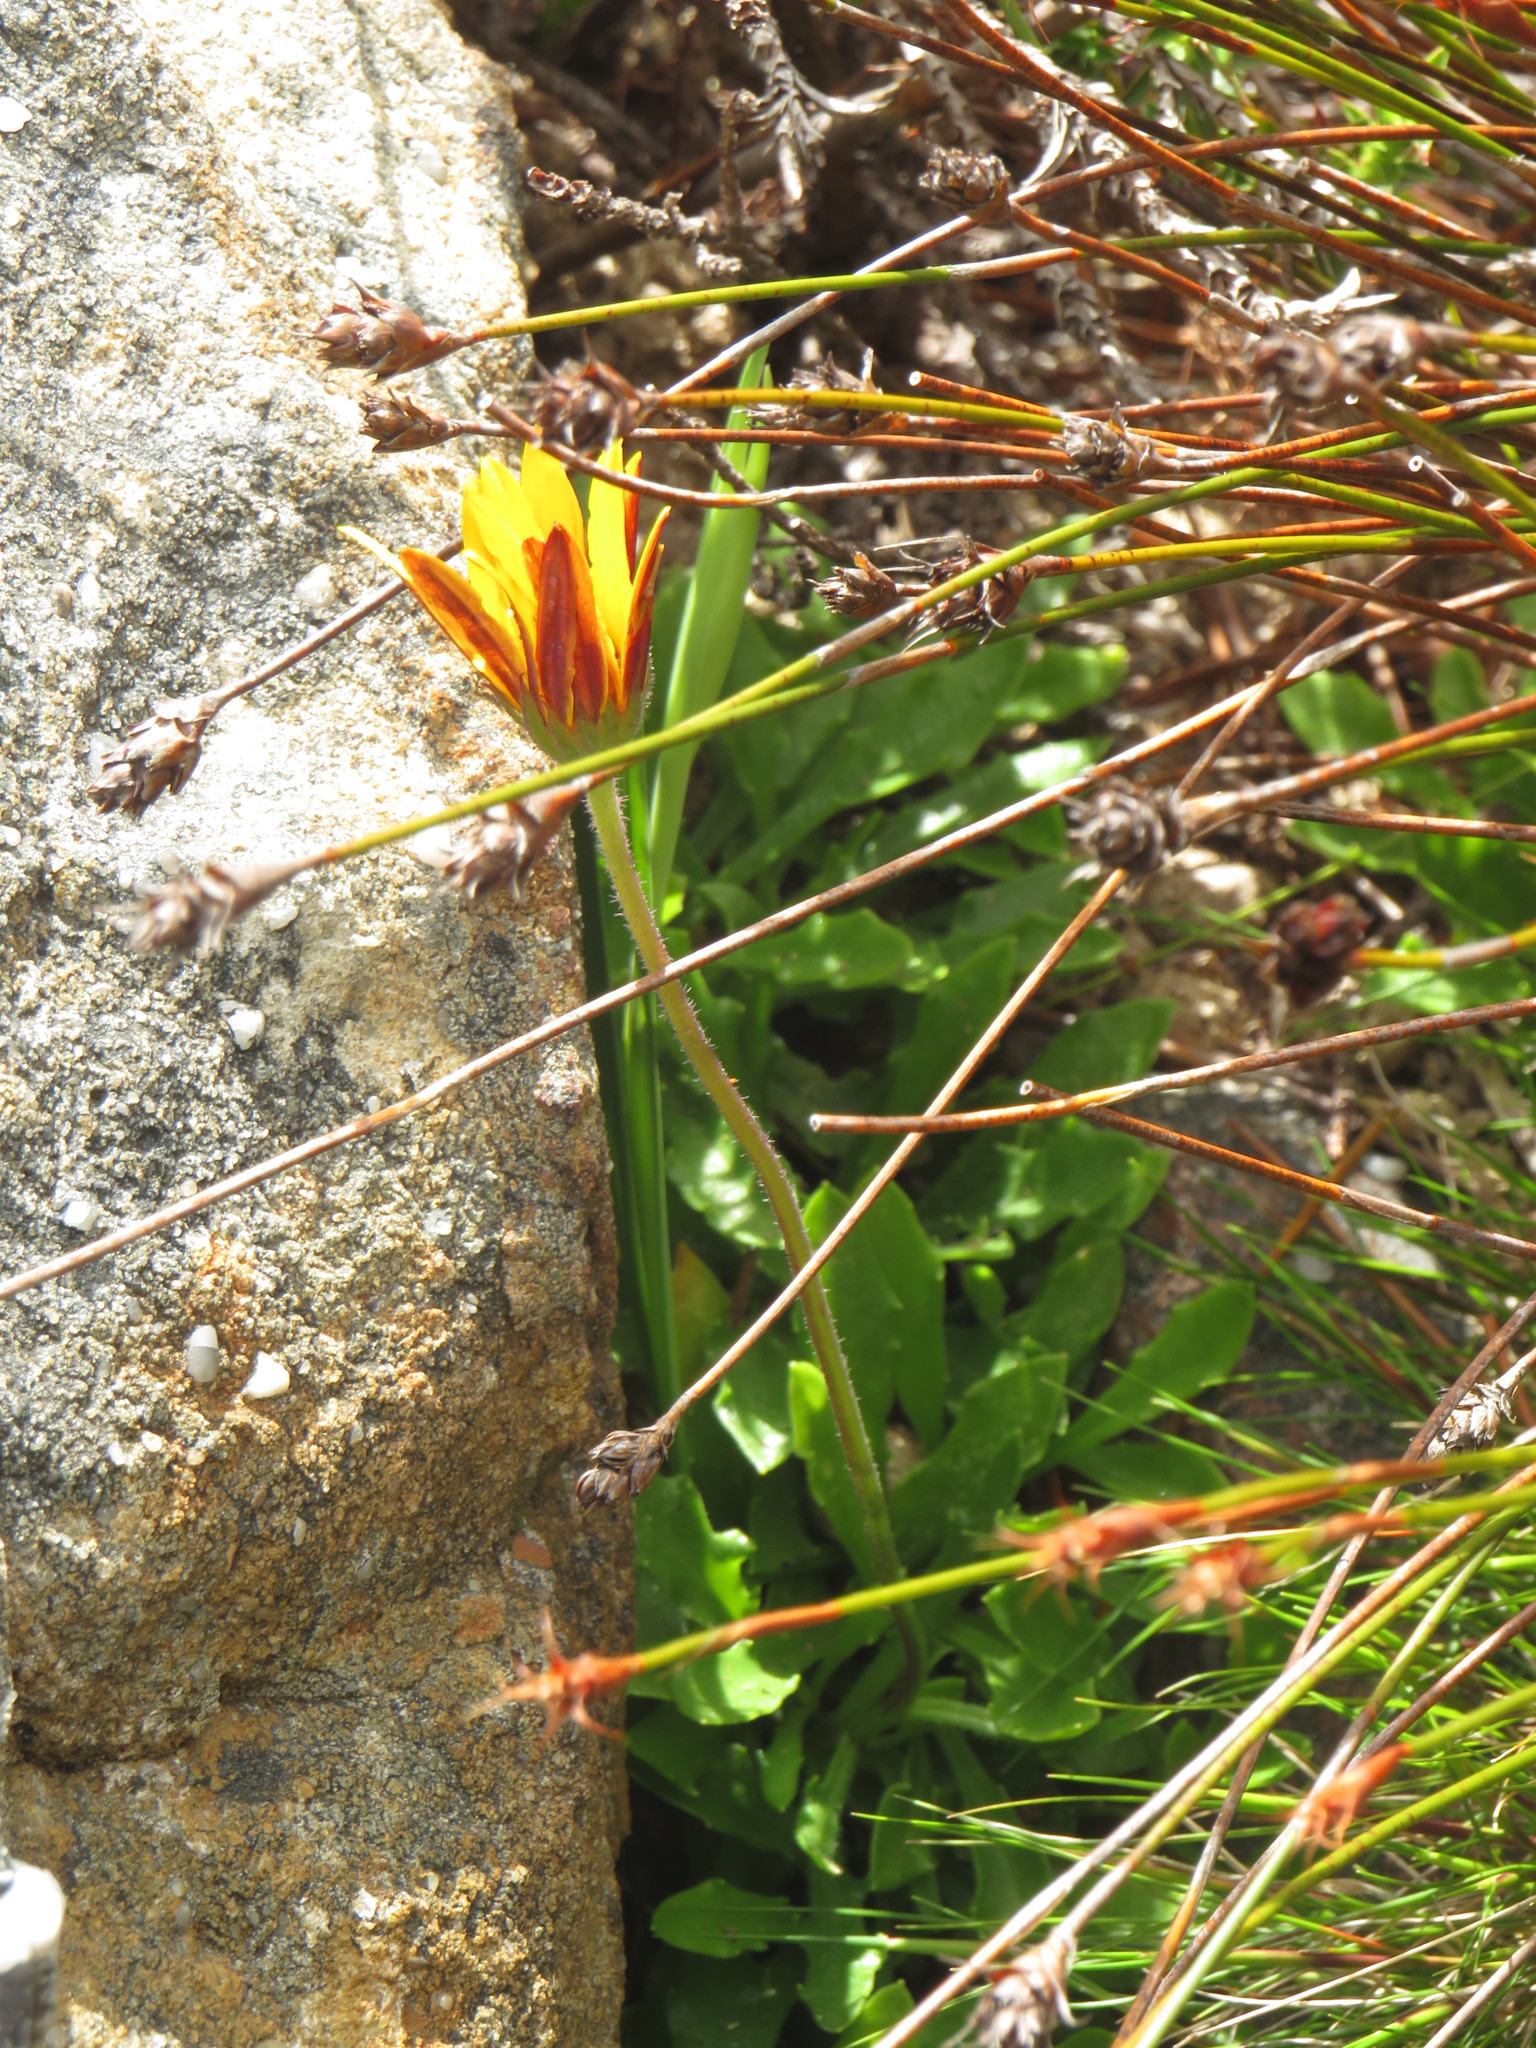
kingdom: Plantae
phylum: Tracheophyta
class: Magnoliopsida
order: Asterales
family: Asteraceae
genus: Dimorphotheca
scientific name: Dimorphotheca montana
